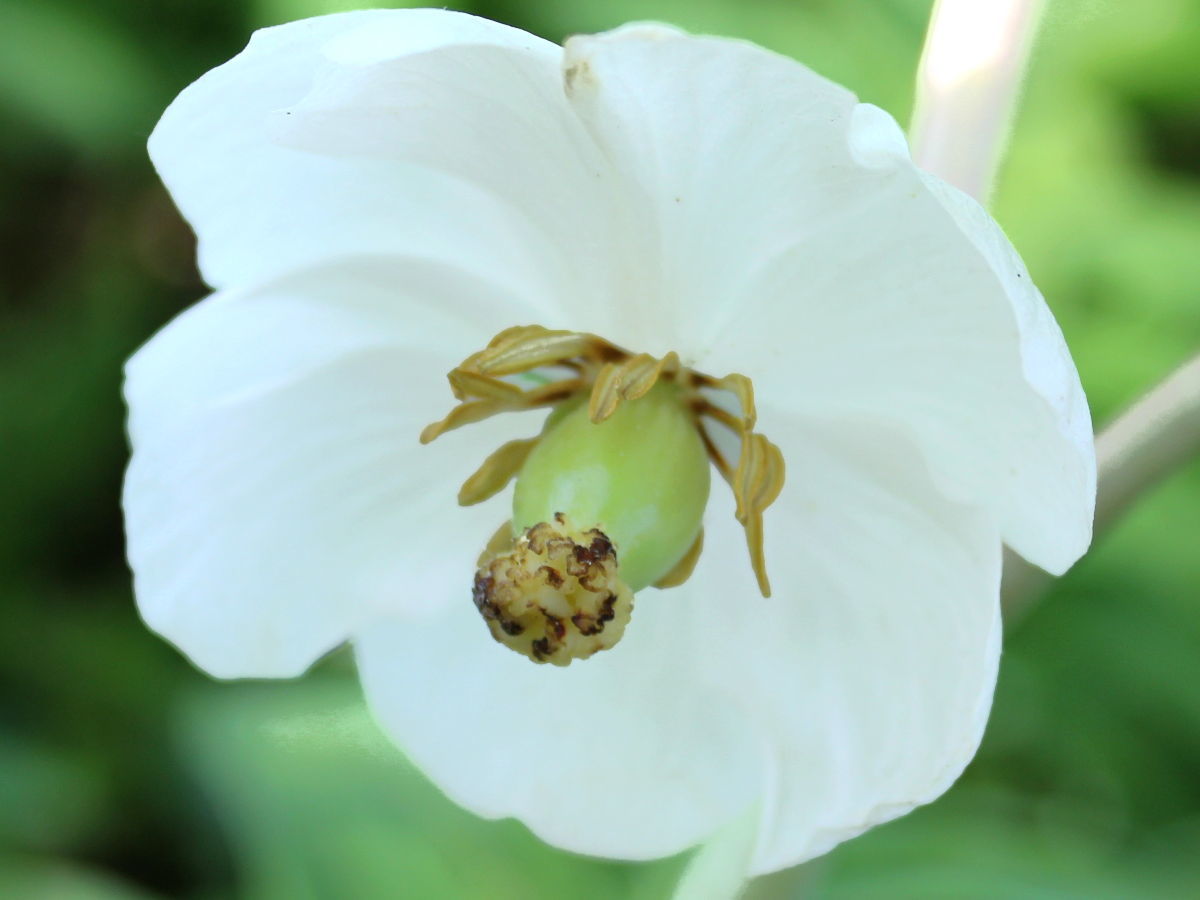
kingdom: Plantae
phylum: Tracheophyta
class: Magnoliopsida
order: Ranunculales
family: Berberidaceae
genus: Podophyllum
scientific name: Podophyllum peltatum
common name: Wild mandrake
